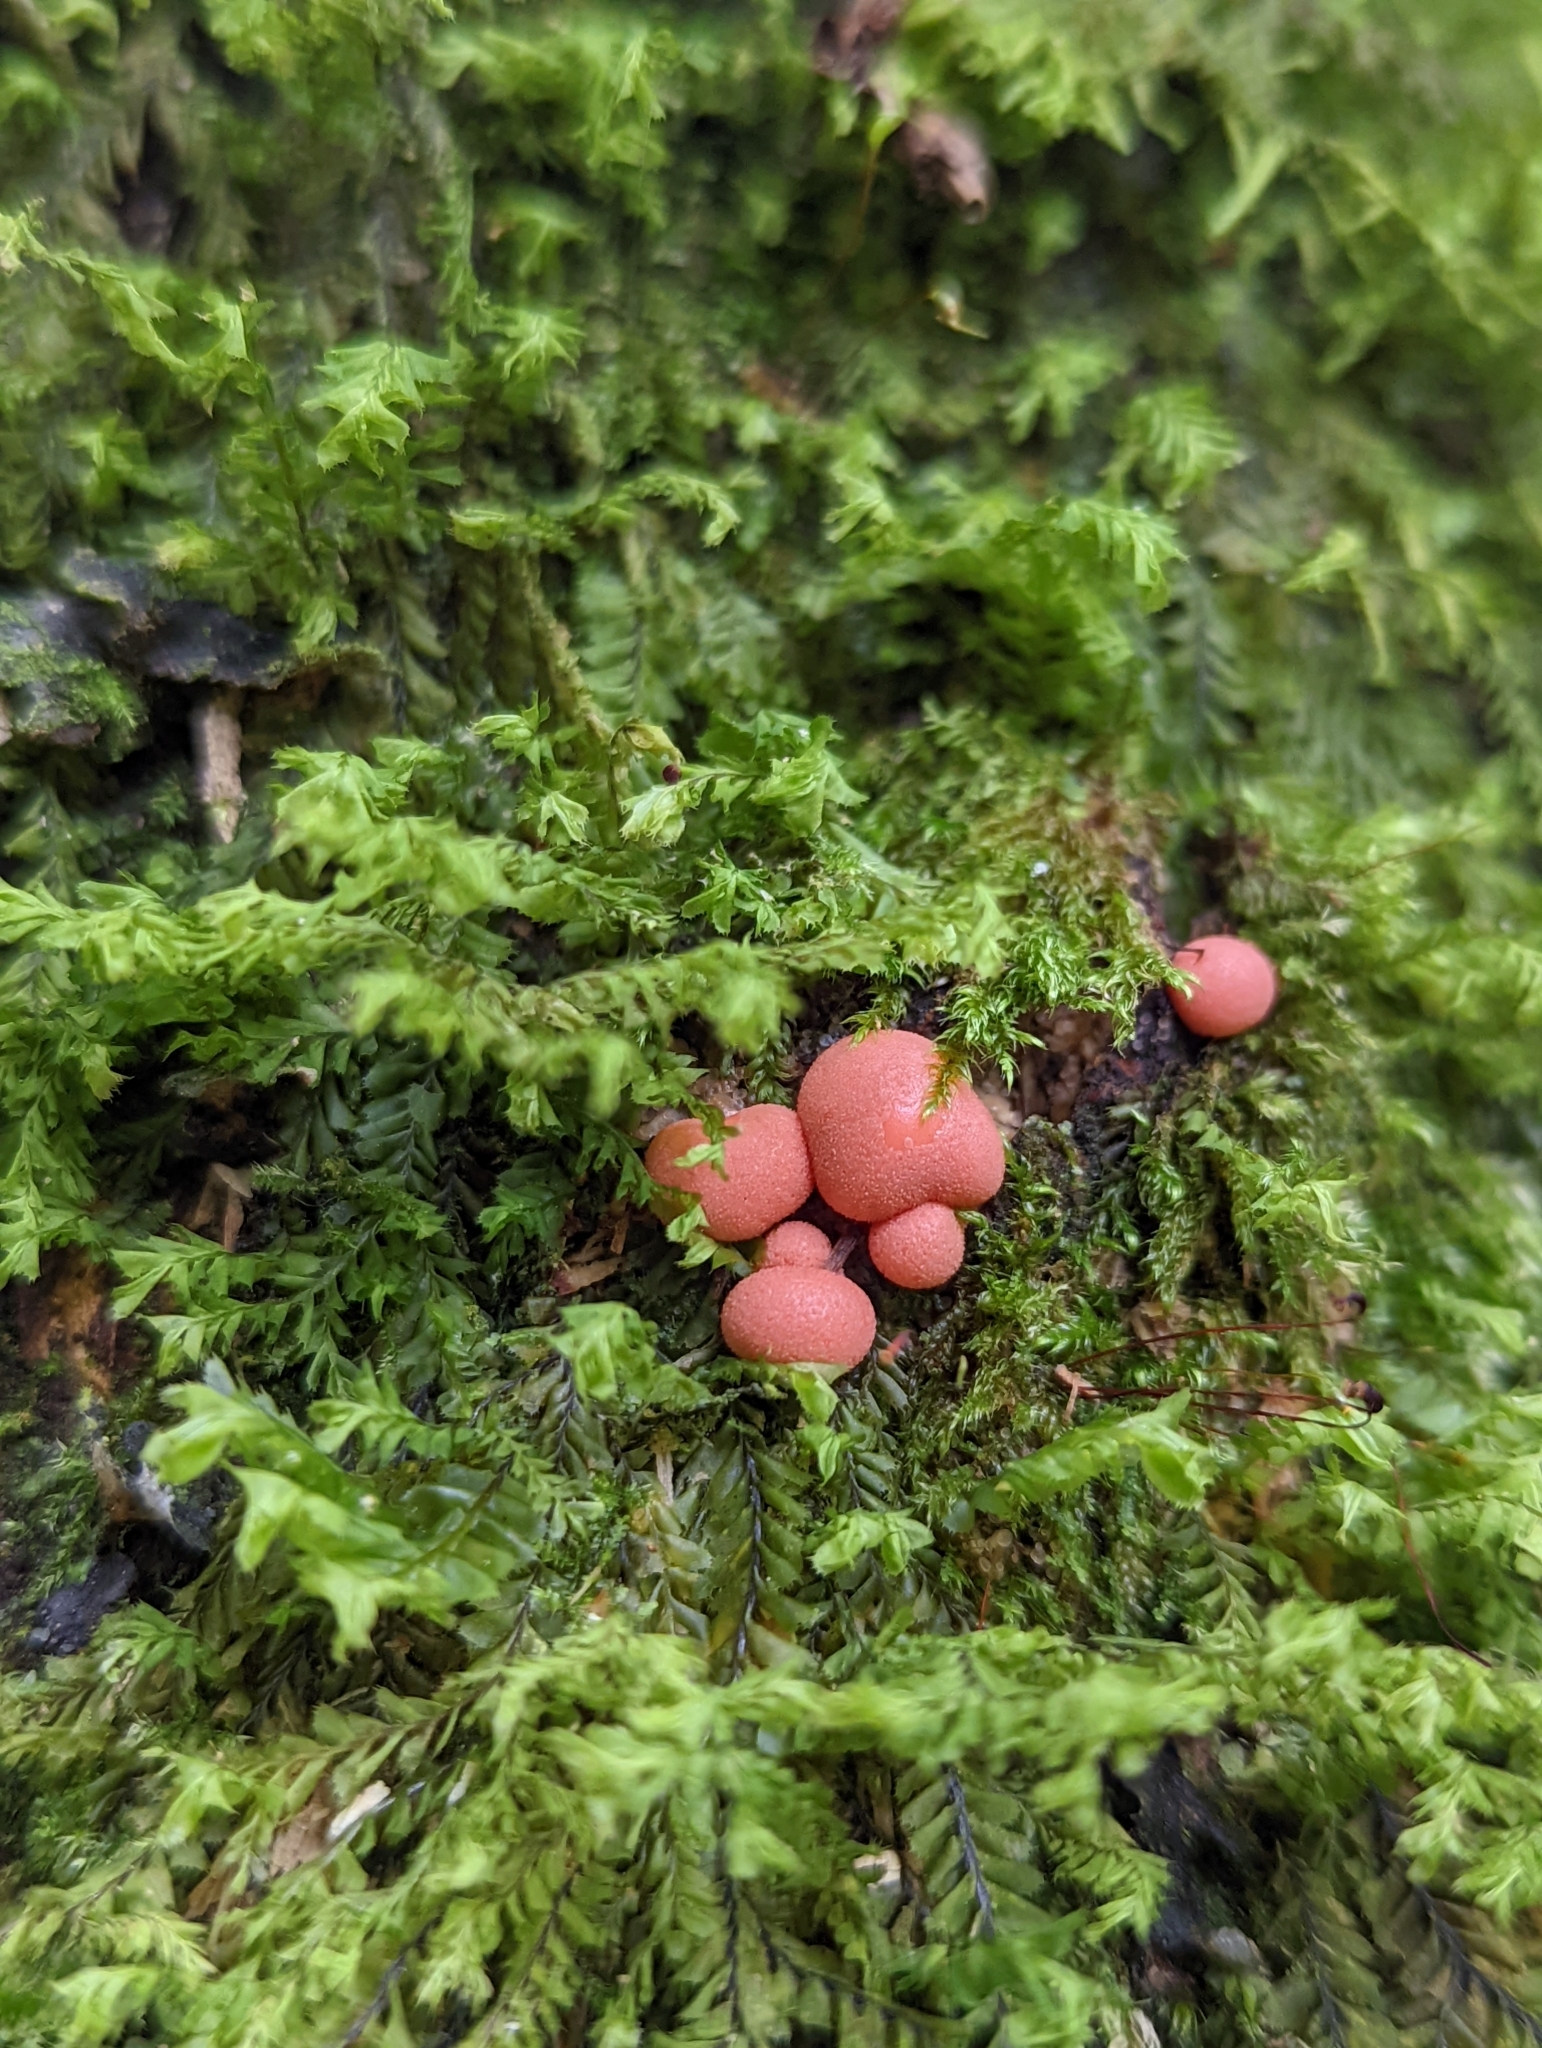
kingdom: Protozoa
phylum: Mycetozoa
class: Myxomycetes
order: Cribrariales
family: Tubiferaceae
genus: Lycogala
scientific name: Lycogala epidendrum
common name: Wolf's milk
